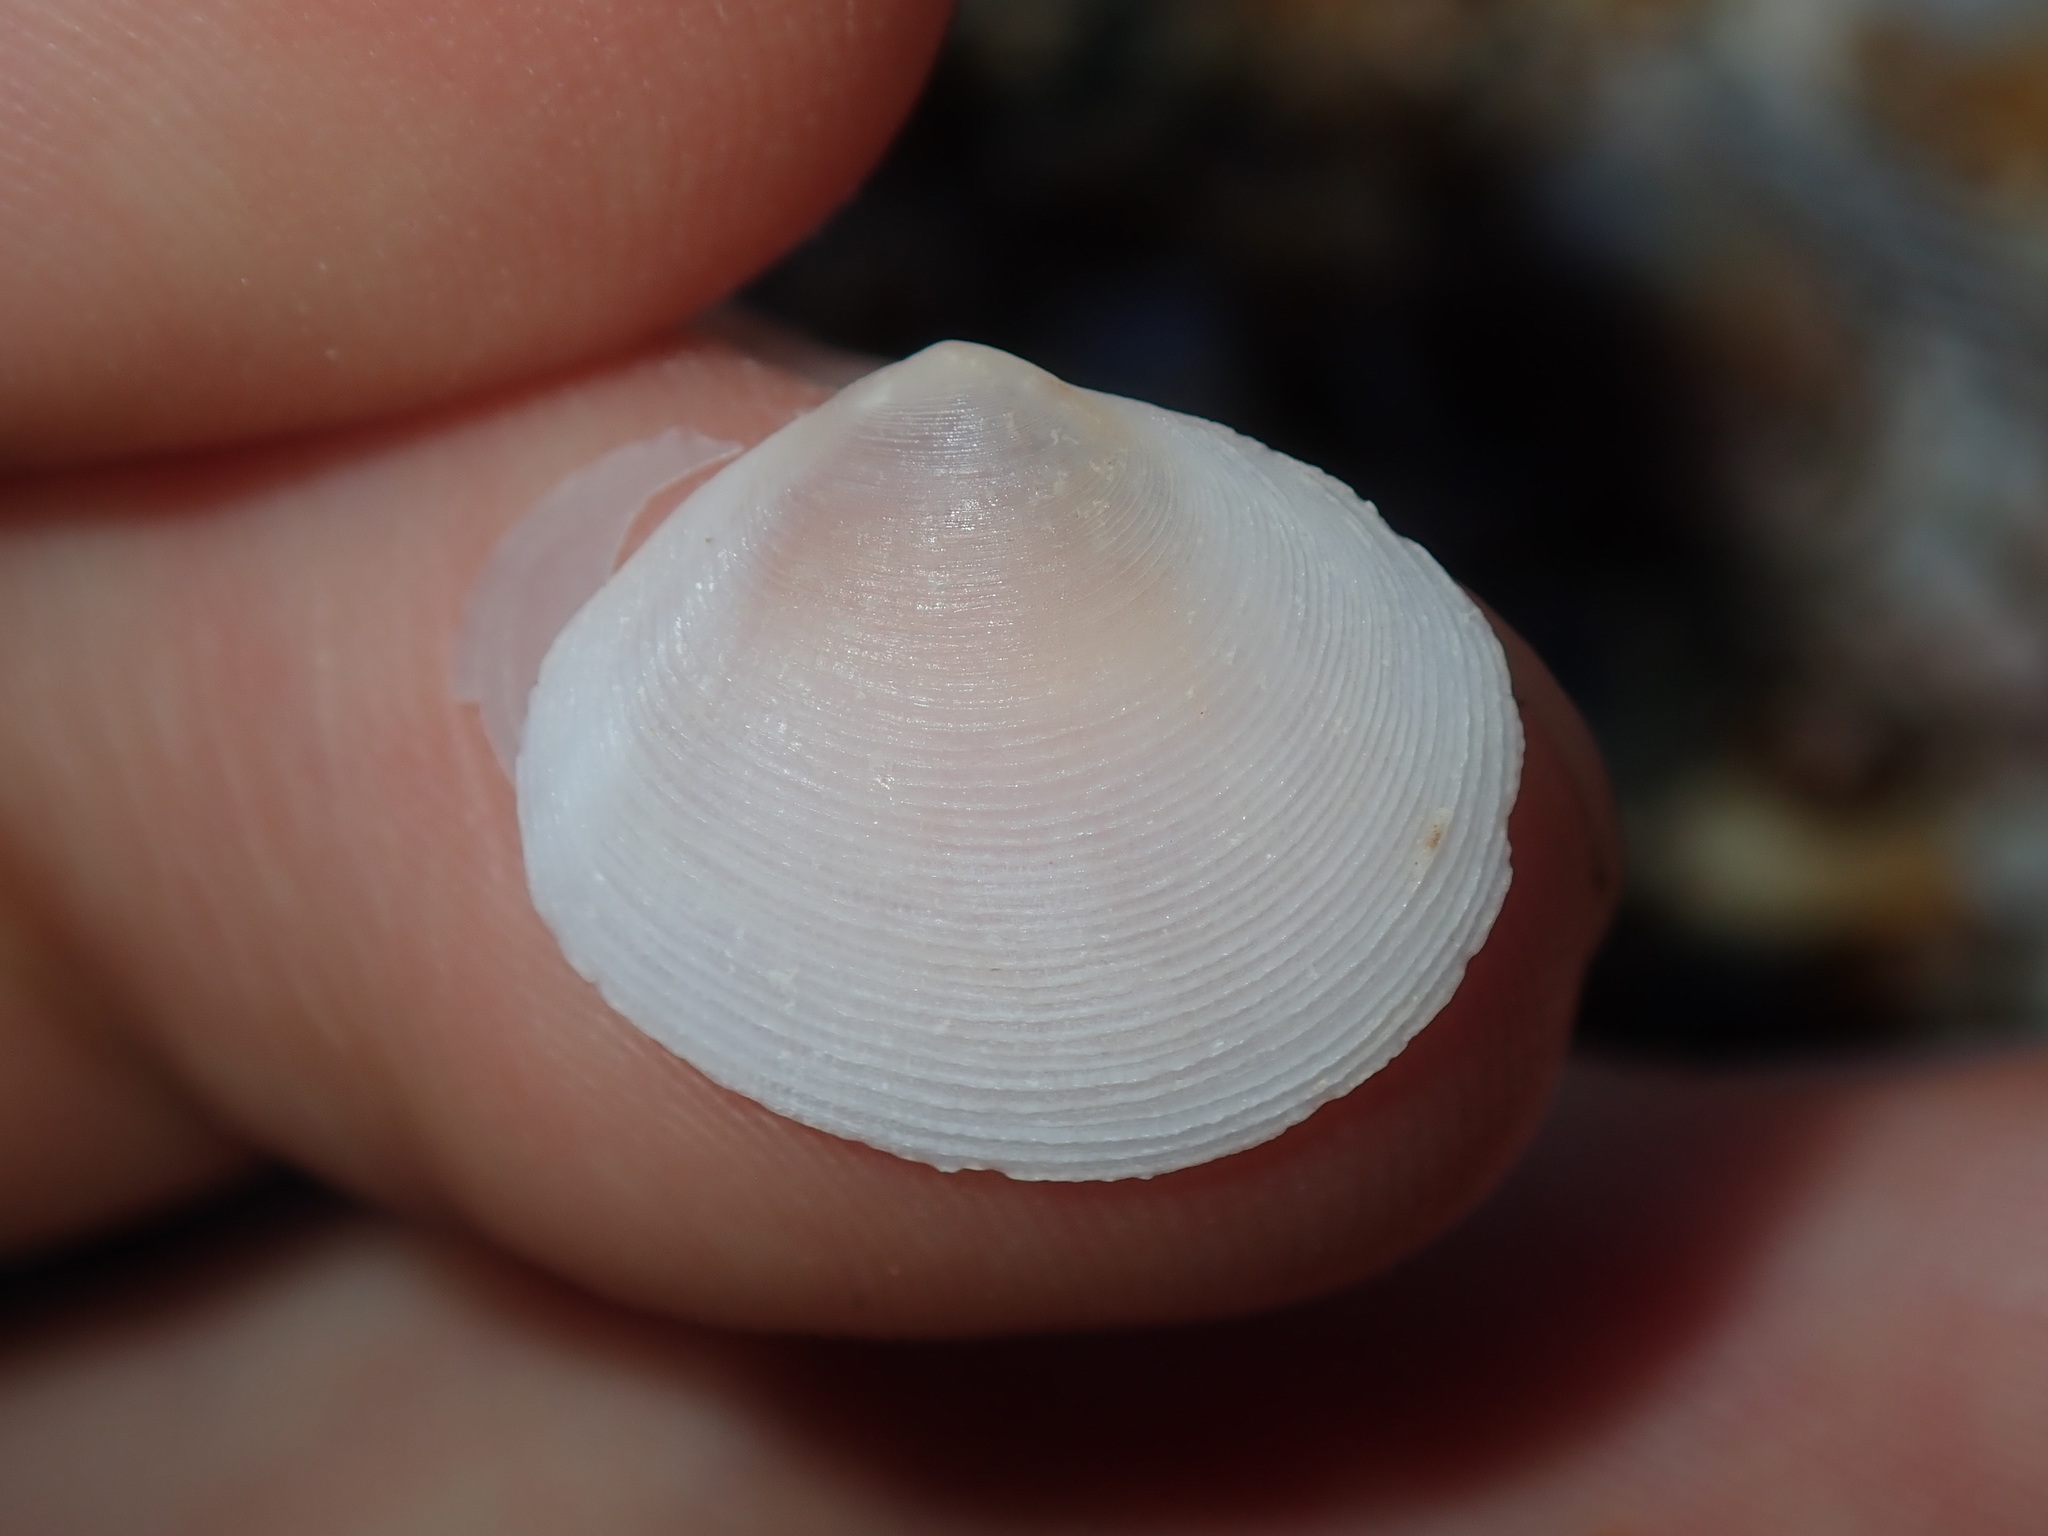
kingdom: Animalia
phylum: Mollusca
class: Bivalvia
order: Cardiida
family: Tellinidae
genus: Pseudarcopagia
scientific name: Pseudarcopagia botanica
